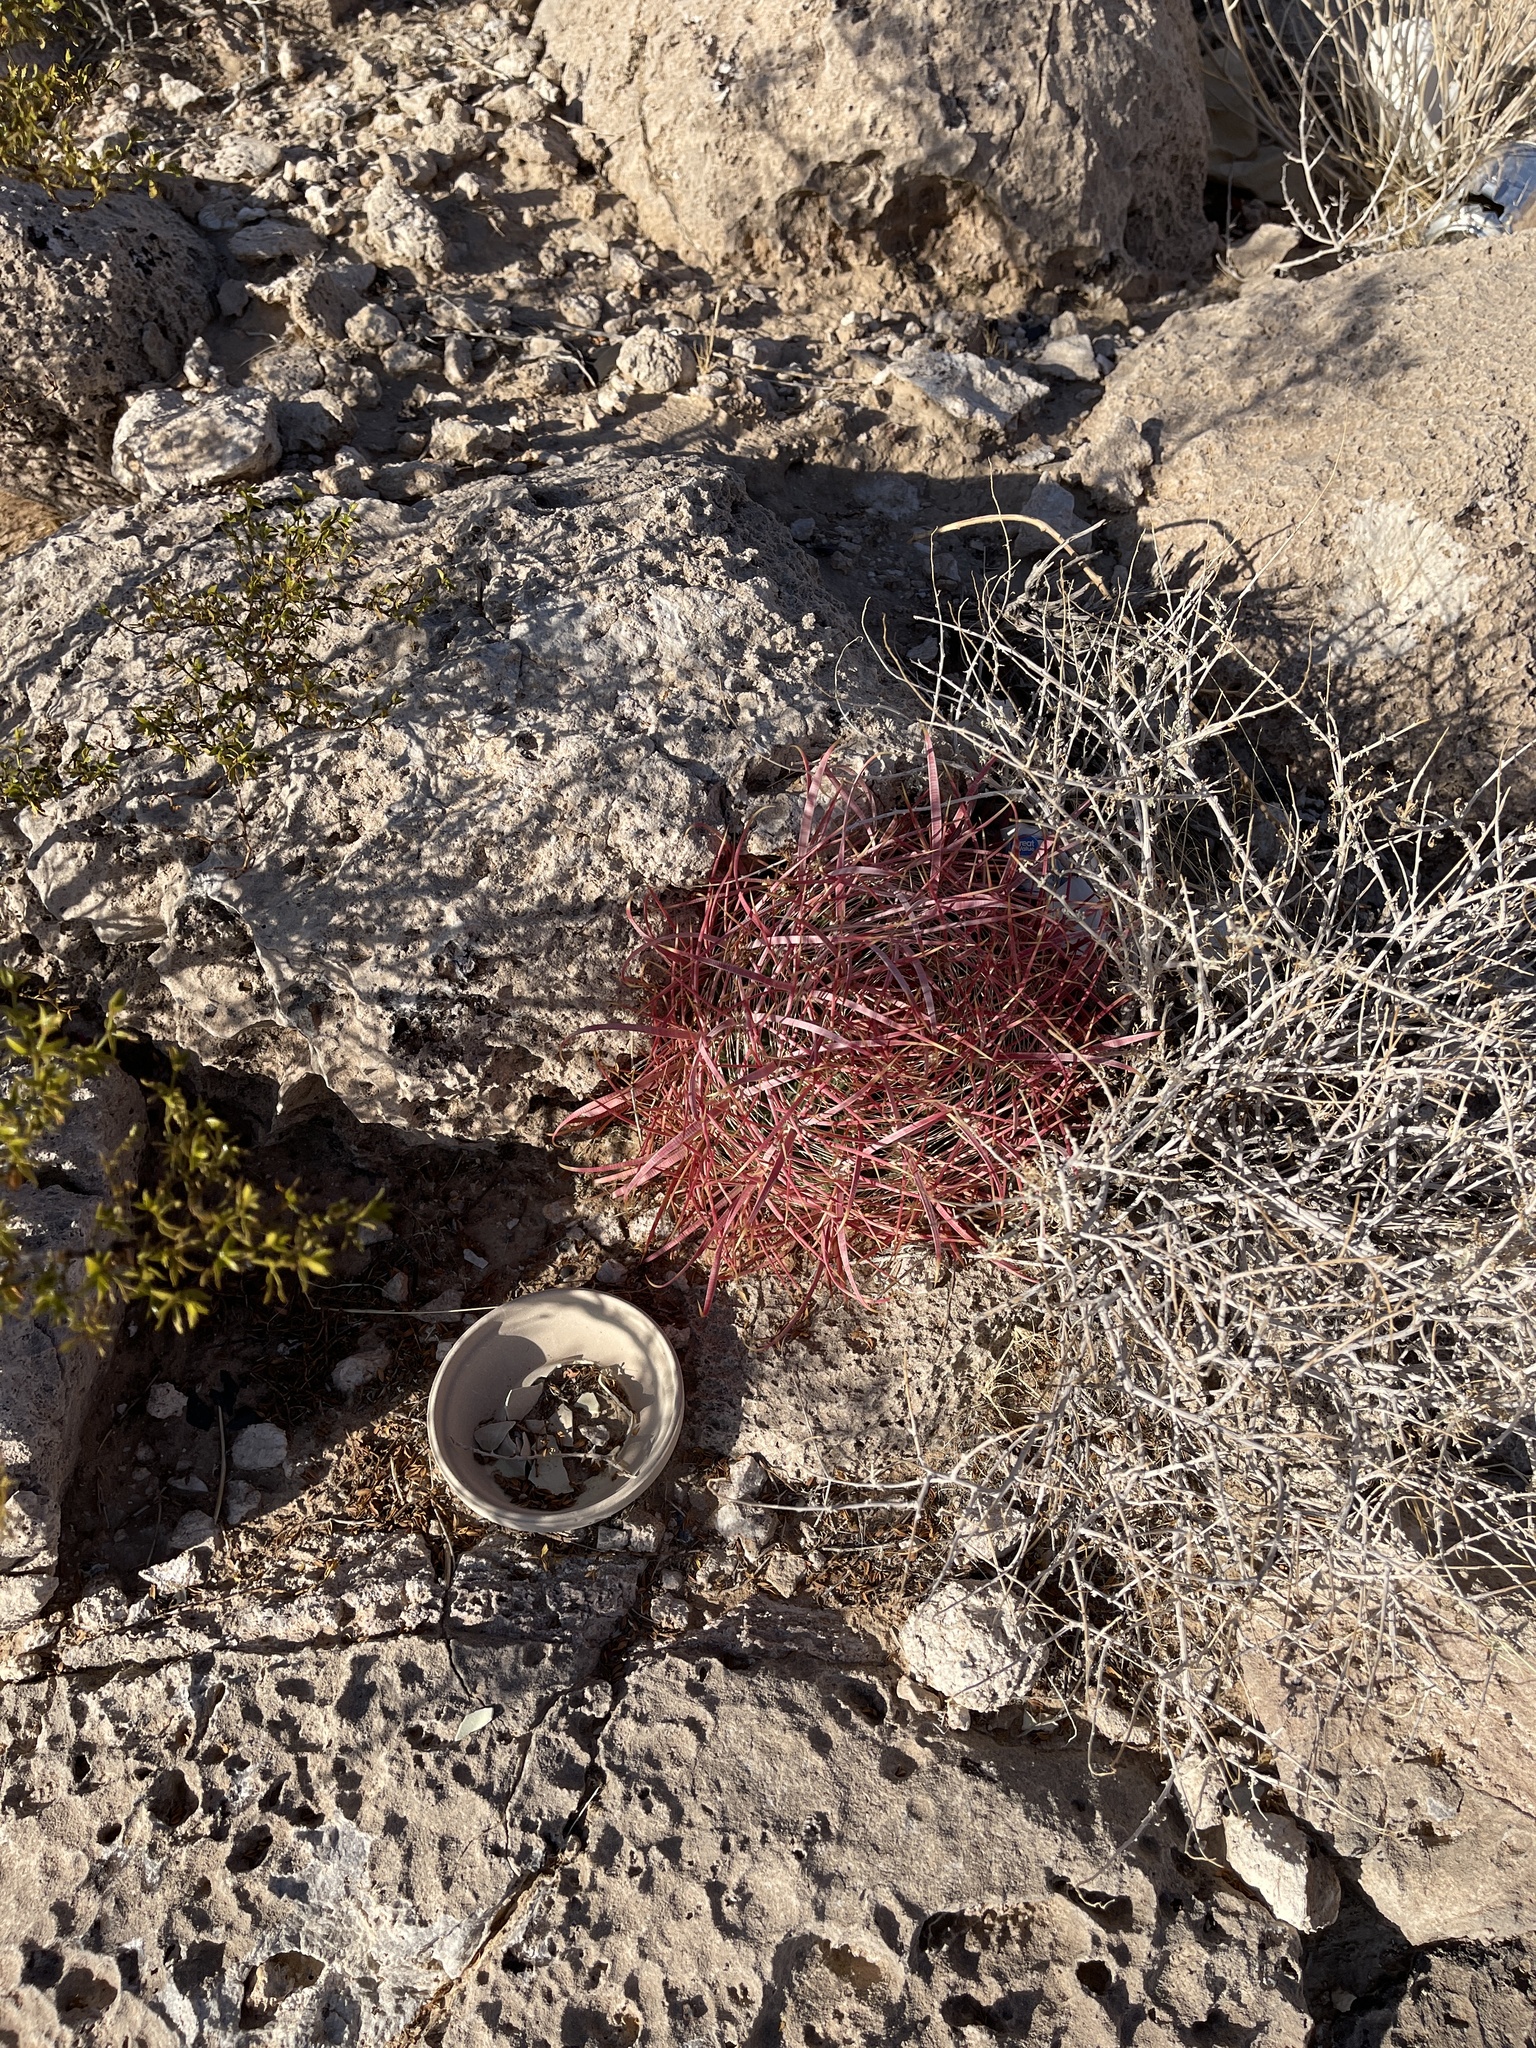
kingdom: Plantae
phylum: Tracheophyta
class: Magnoliopsida
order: Caryophyllales
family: Cactaceae
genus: Ferocactus
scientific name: Ferocactus cylindraceus
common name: California barrel cactus
